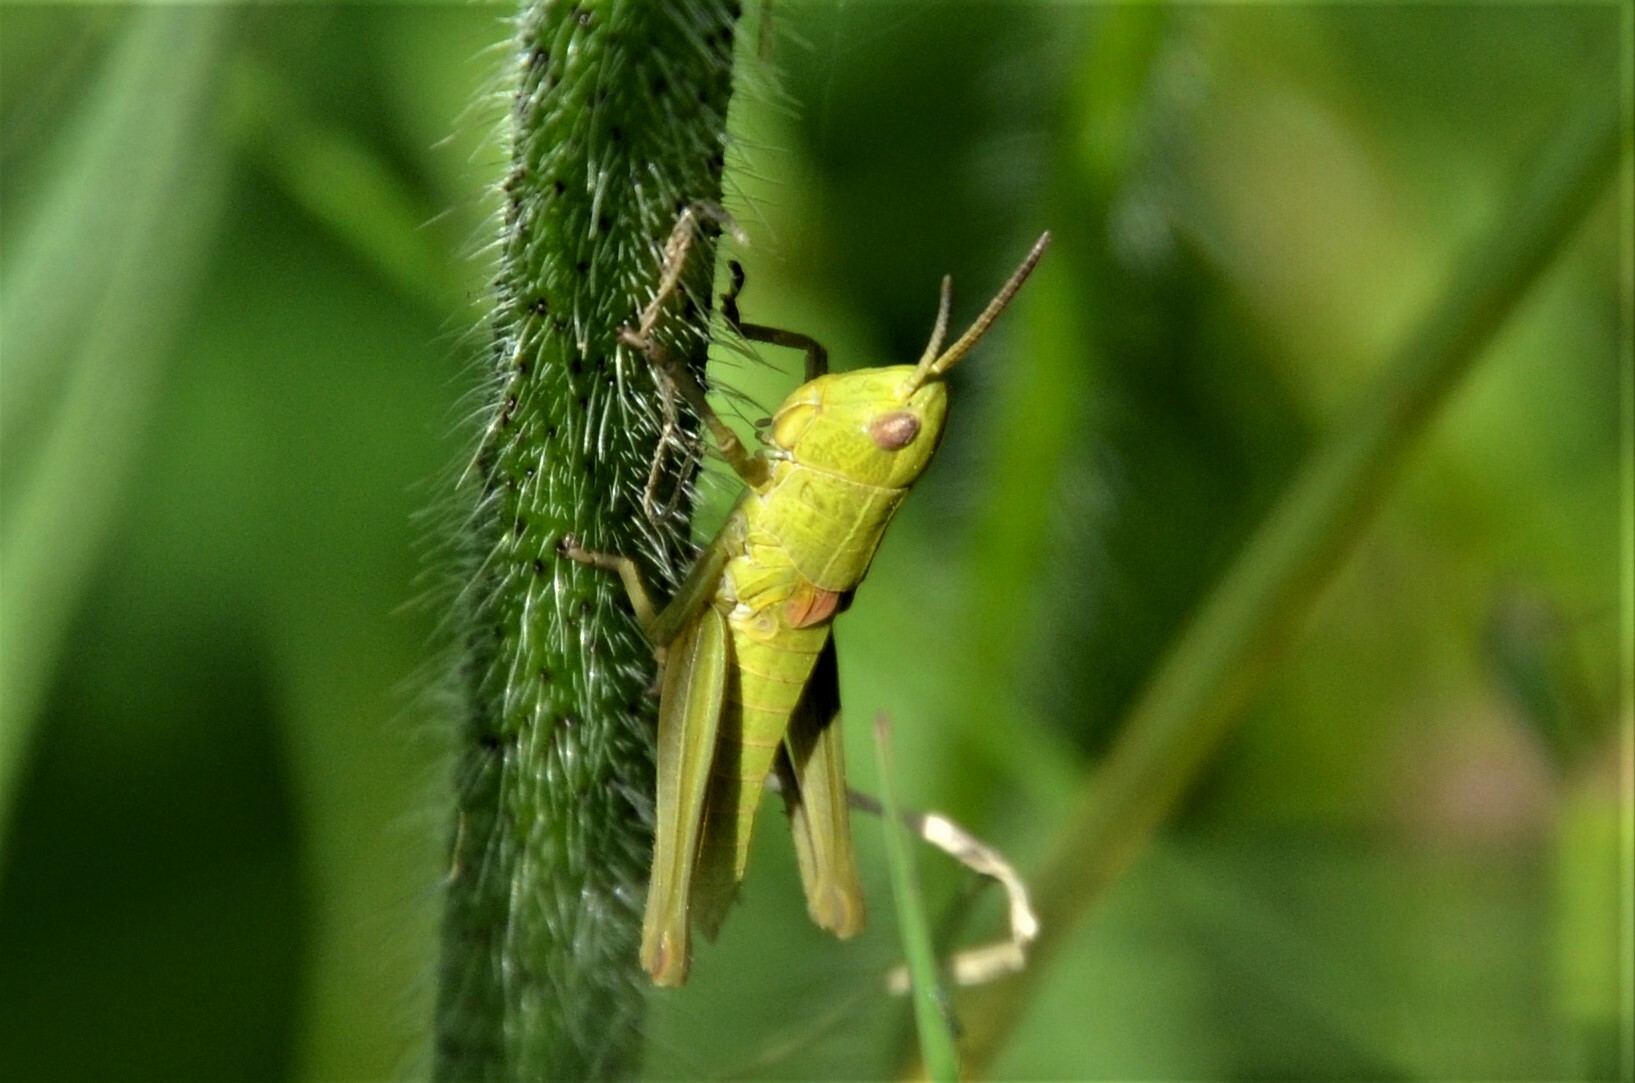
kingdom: Animalia
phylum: Arthropoda
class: Insecta
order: Orthoptera
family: Acrididae
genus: Euthystira
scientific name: Euthystira brachyptera
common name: Small gold grasshopper
